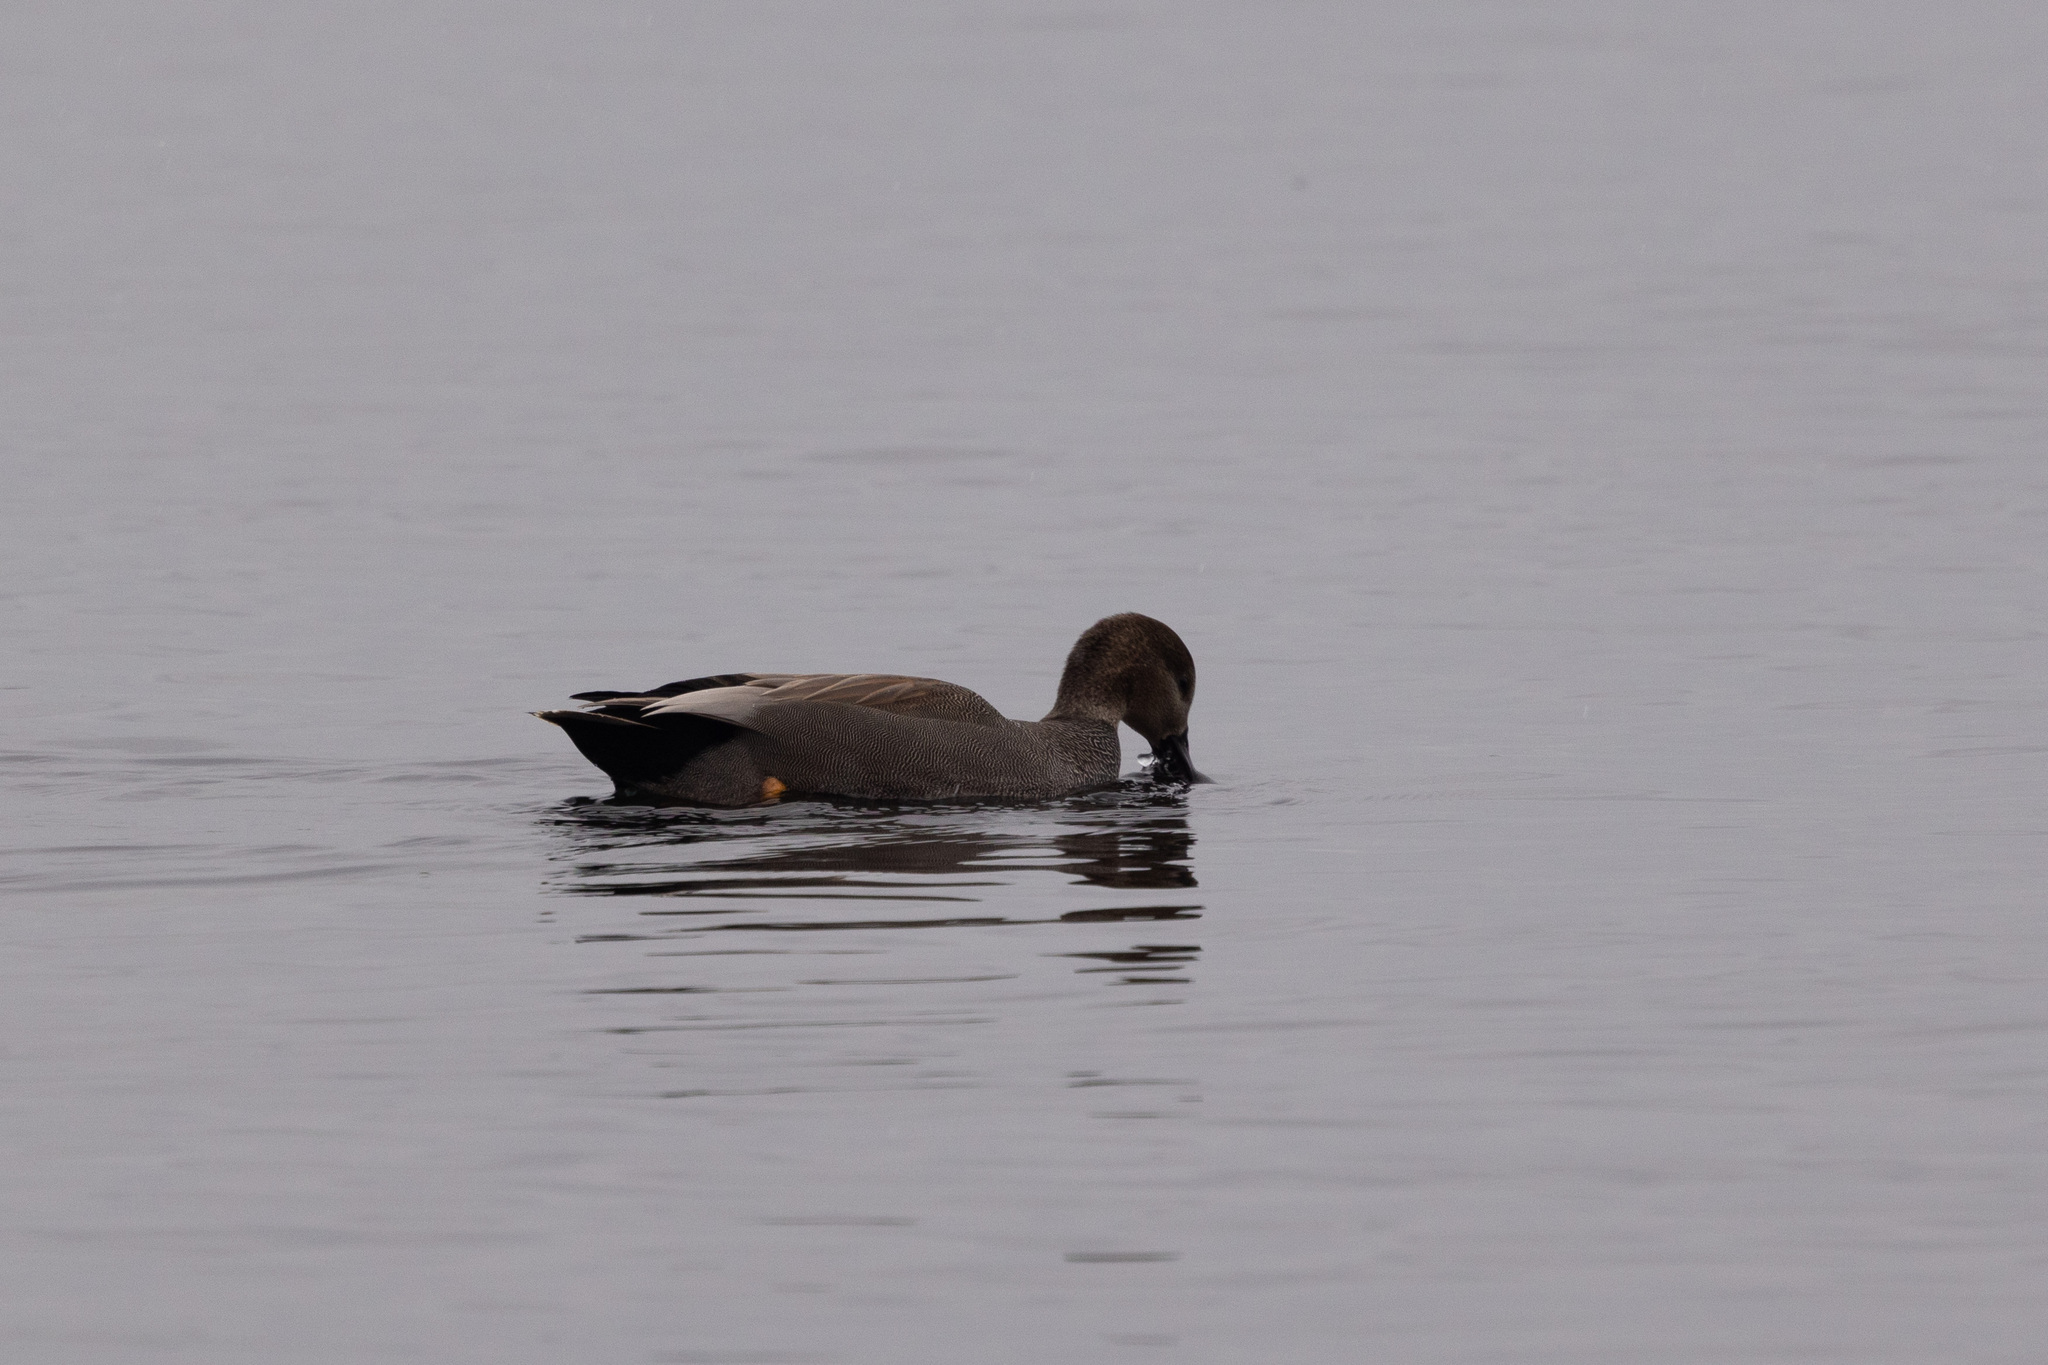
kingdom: Animalia
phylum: Chordata
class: Aves
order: Anseriformes
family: Anatidae
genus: Mareca
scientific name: Mareca strepera
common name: Gadwall
